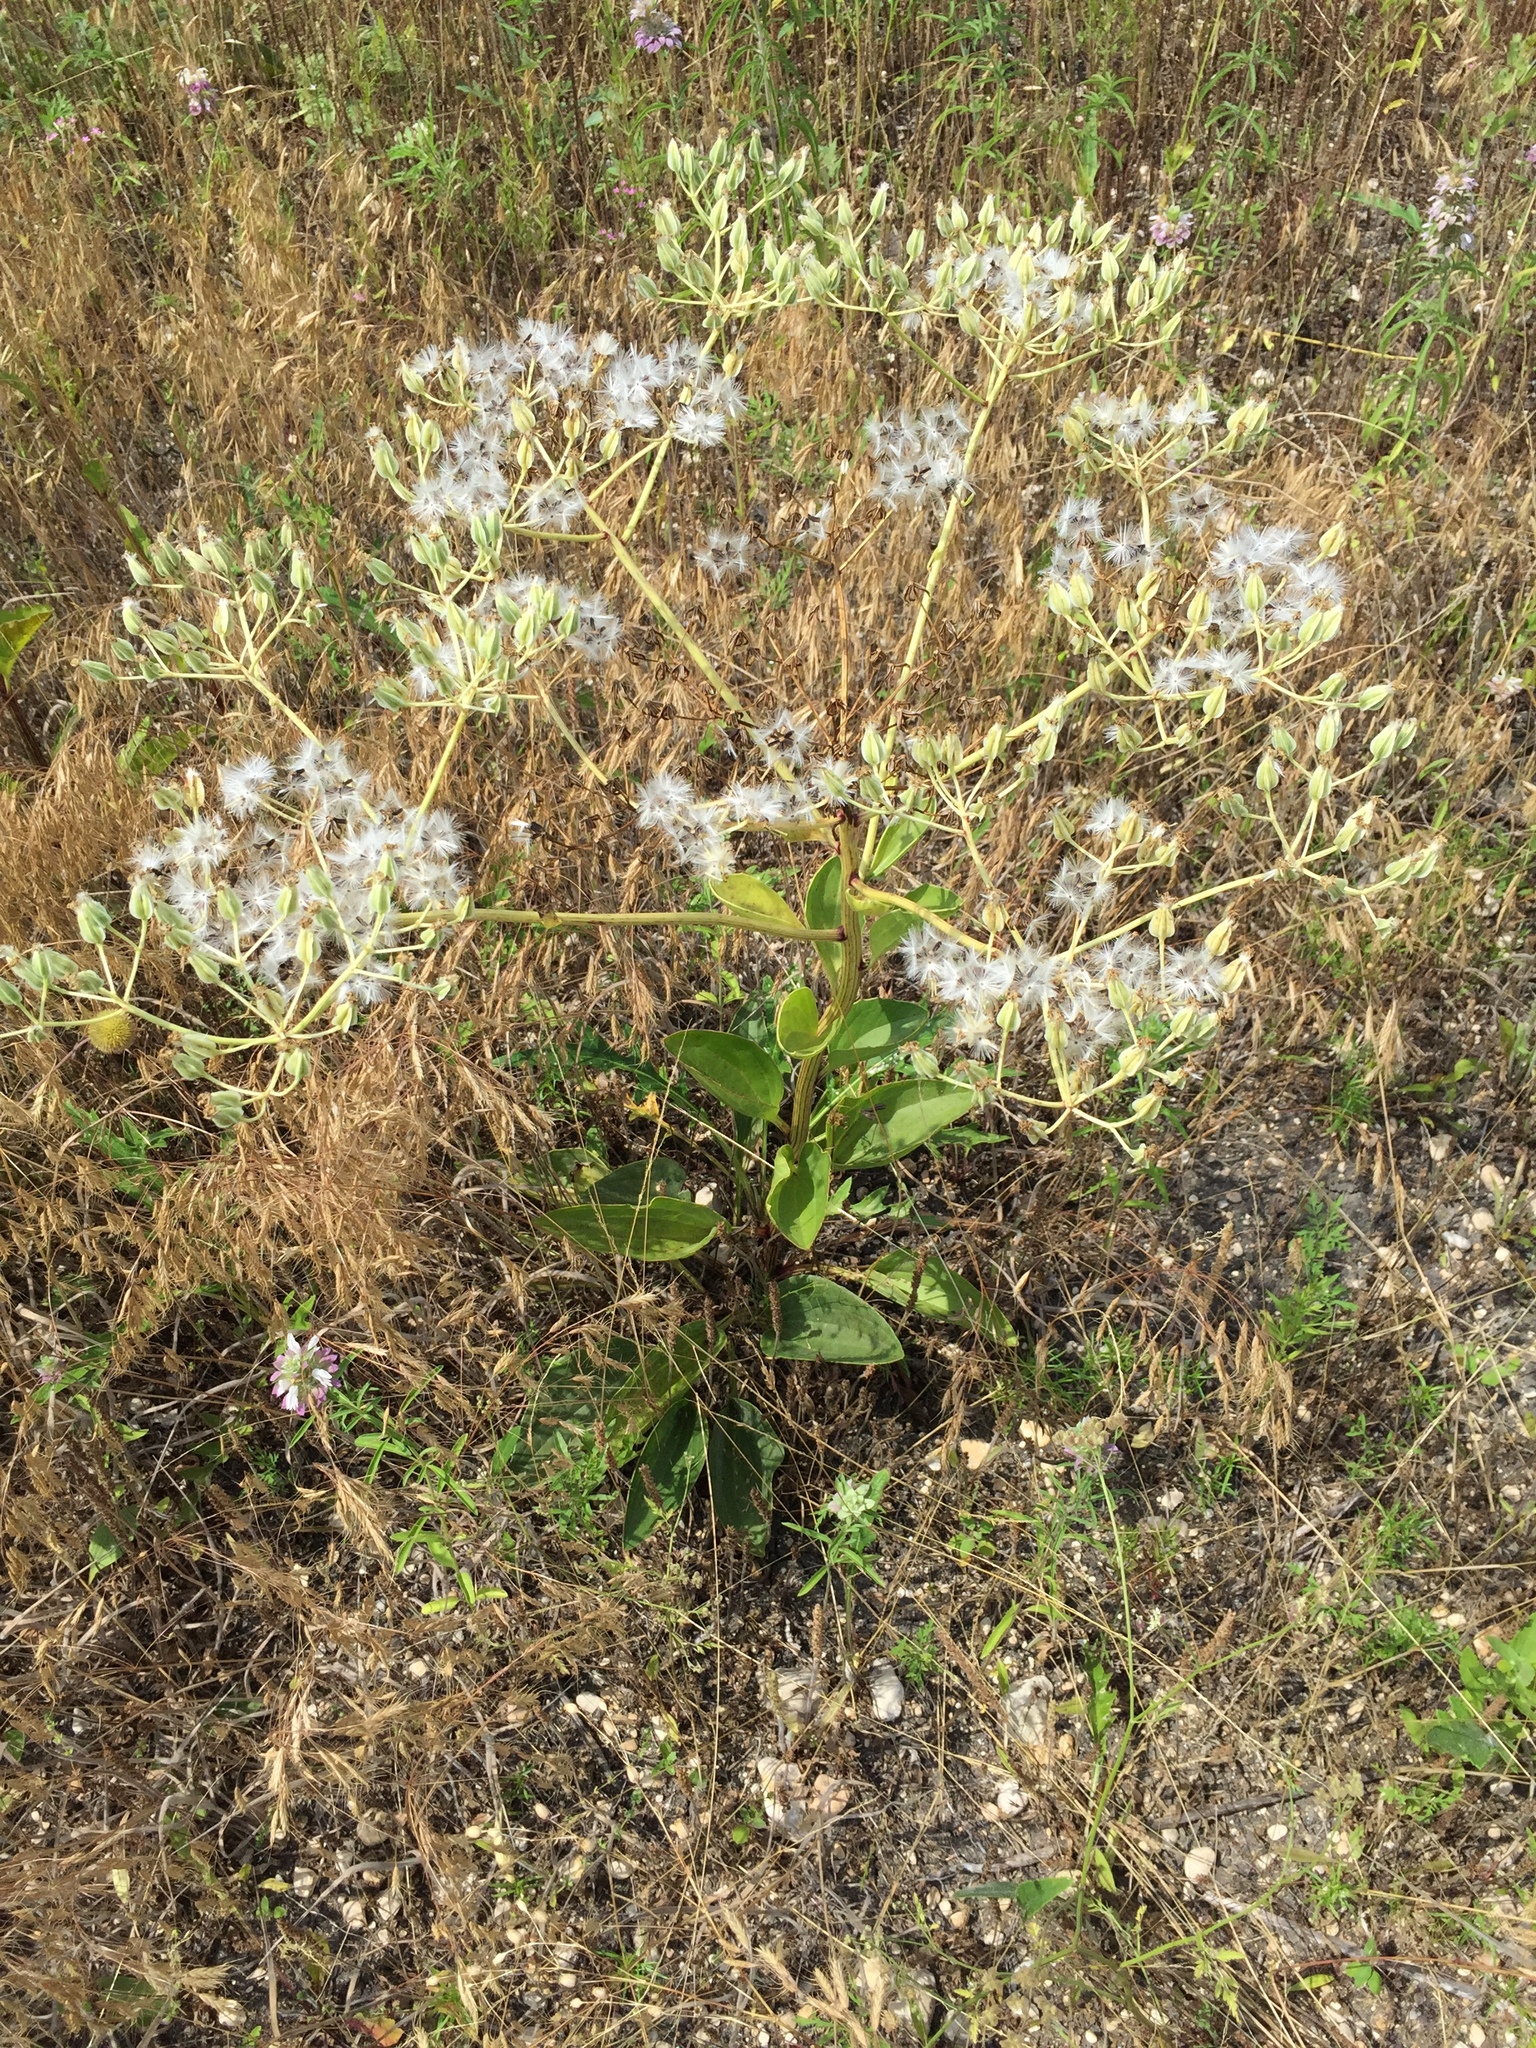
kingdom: Plantae
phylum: Tracheophyta
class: Magnoliopsida
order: Asterales
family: Asteraceae
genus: Arnoglossum
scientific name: Arnoglossum plantagineum
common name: Groove-stemmed indian-plantain
